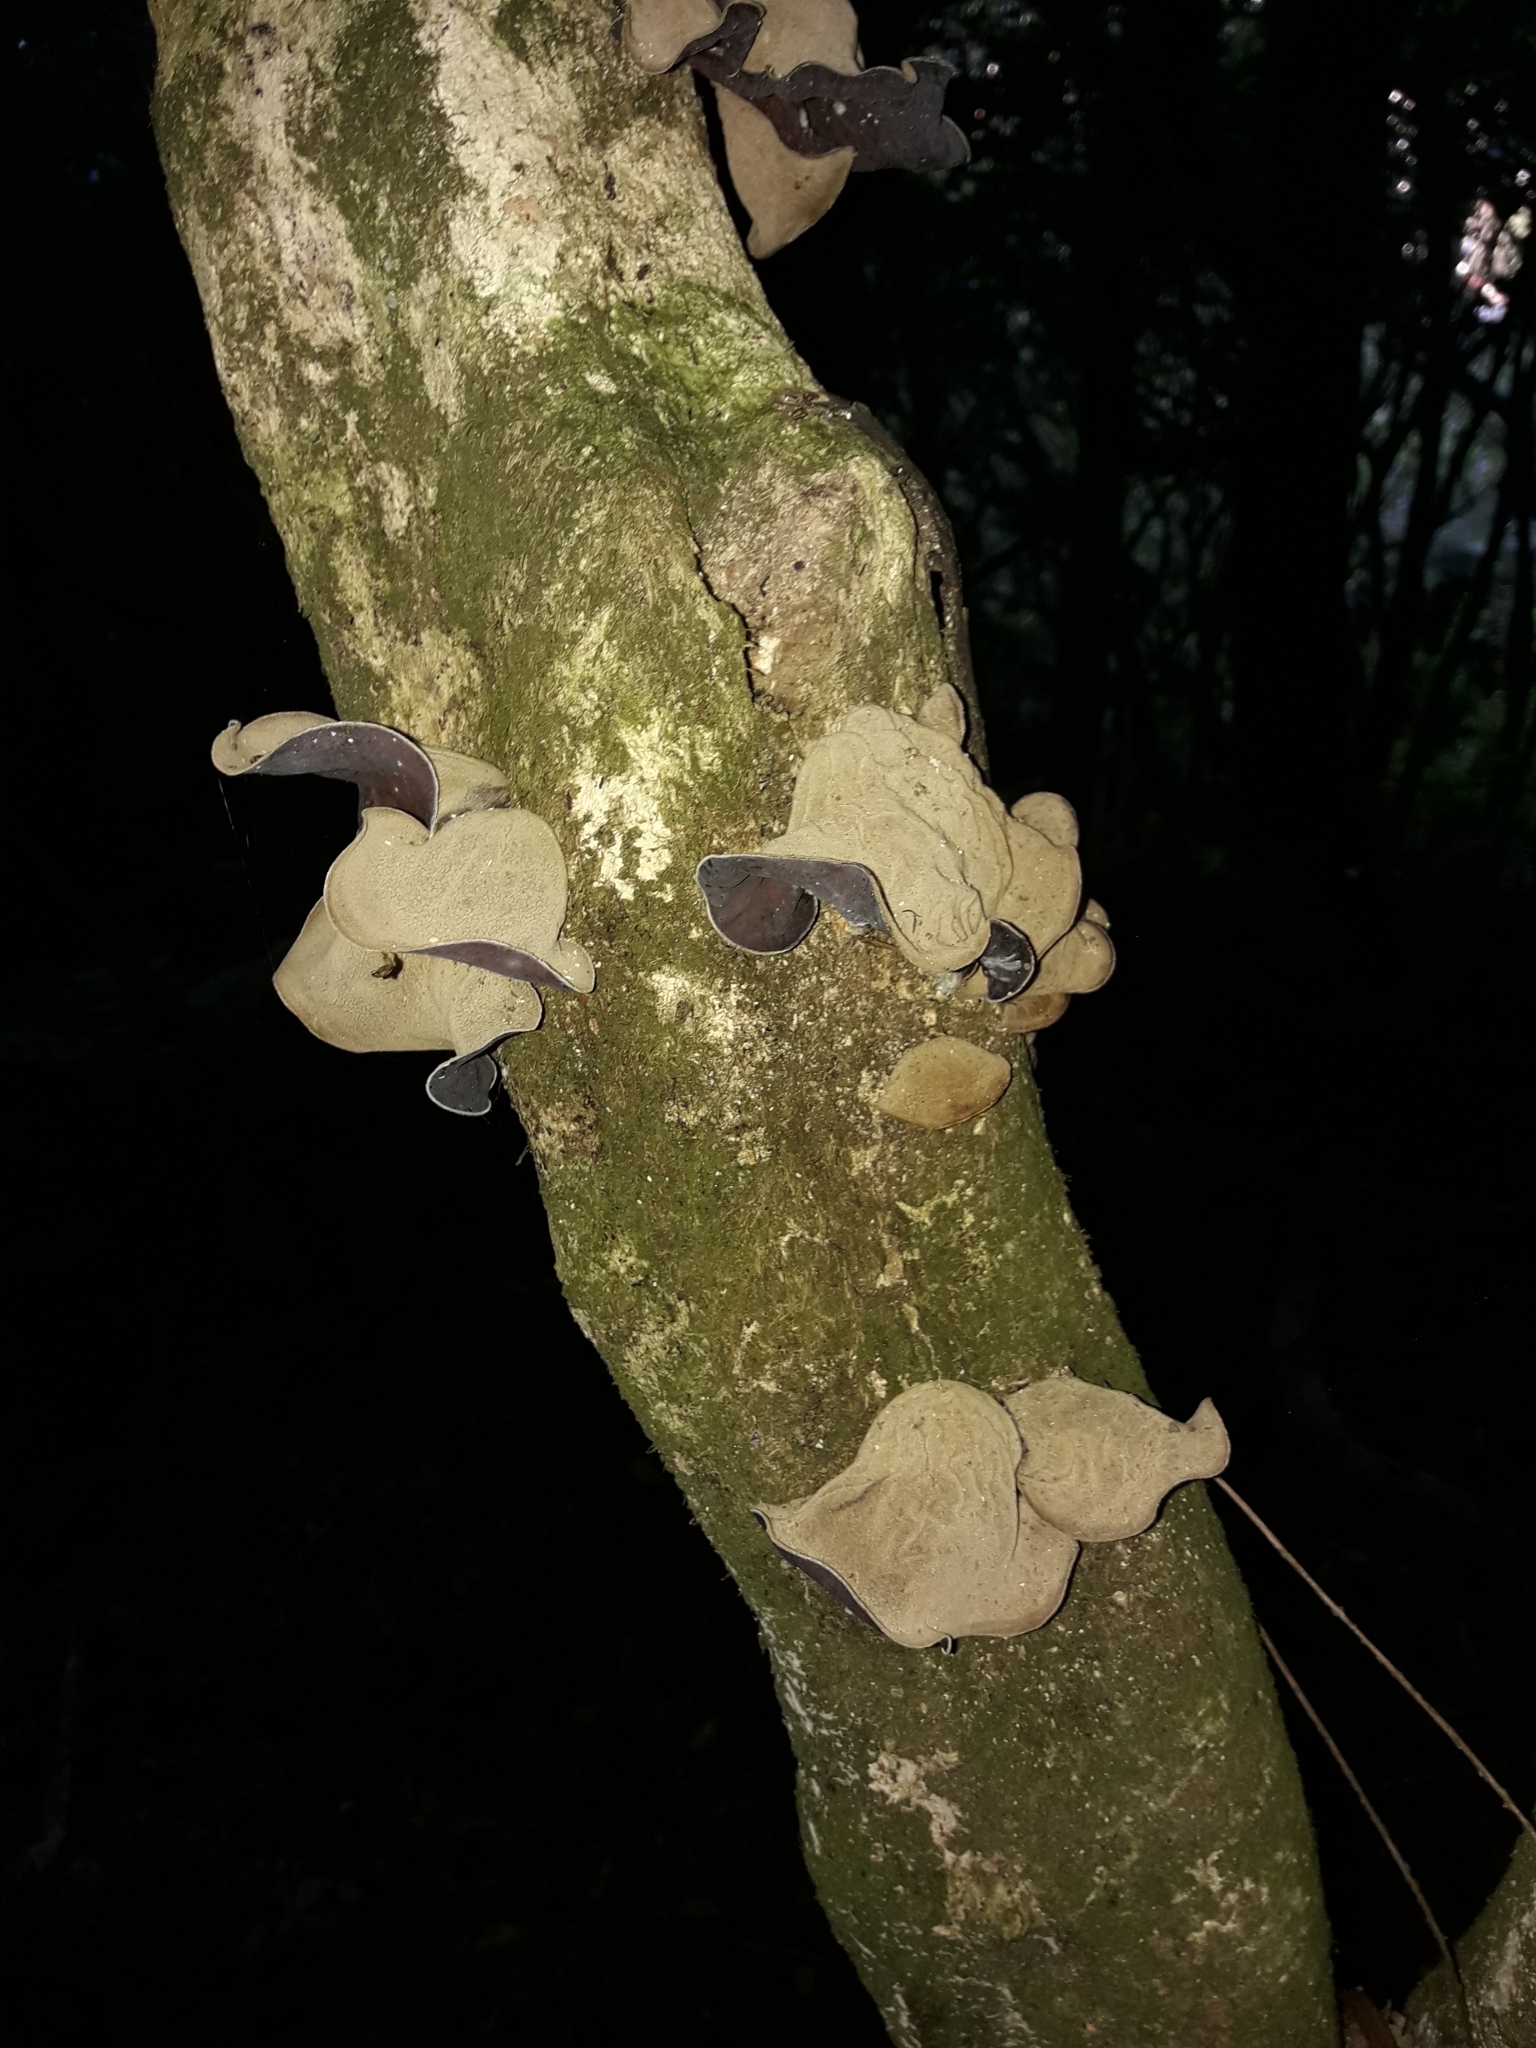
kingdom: Fungi
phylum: Basidiomycota
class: Agaricomycetes
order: Auriculariales
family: Auriculariaceae
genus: Auricularia
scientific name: Auricularia cornea
